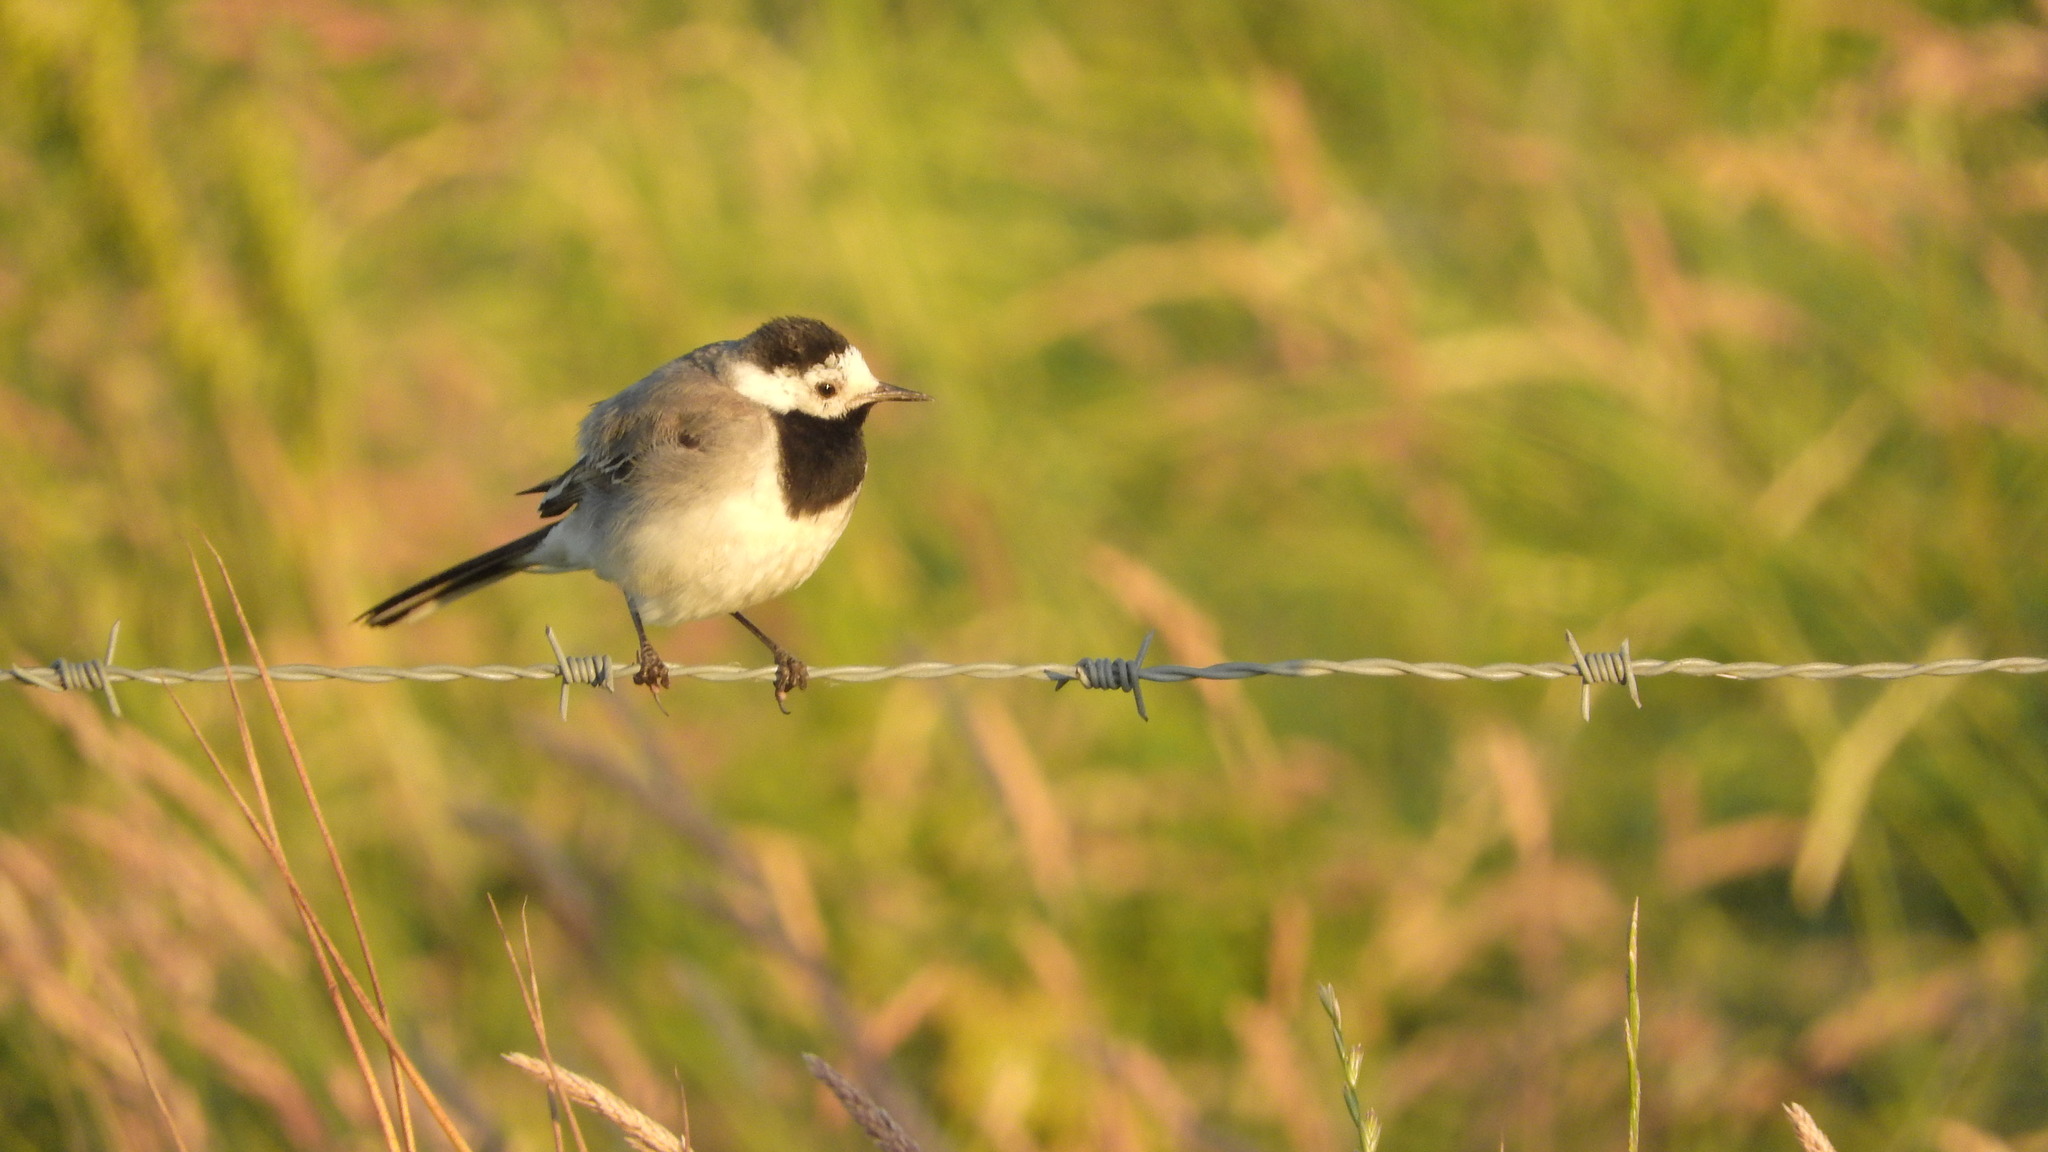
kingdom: Animalia
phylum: Chordata
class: Aves
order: Passeriformes
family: Motacillidae
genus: Motacilla
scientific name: Motacilla alba
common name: White wagtail
